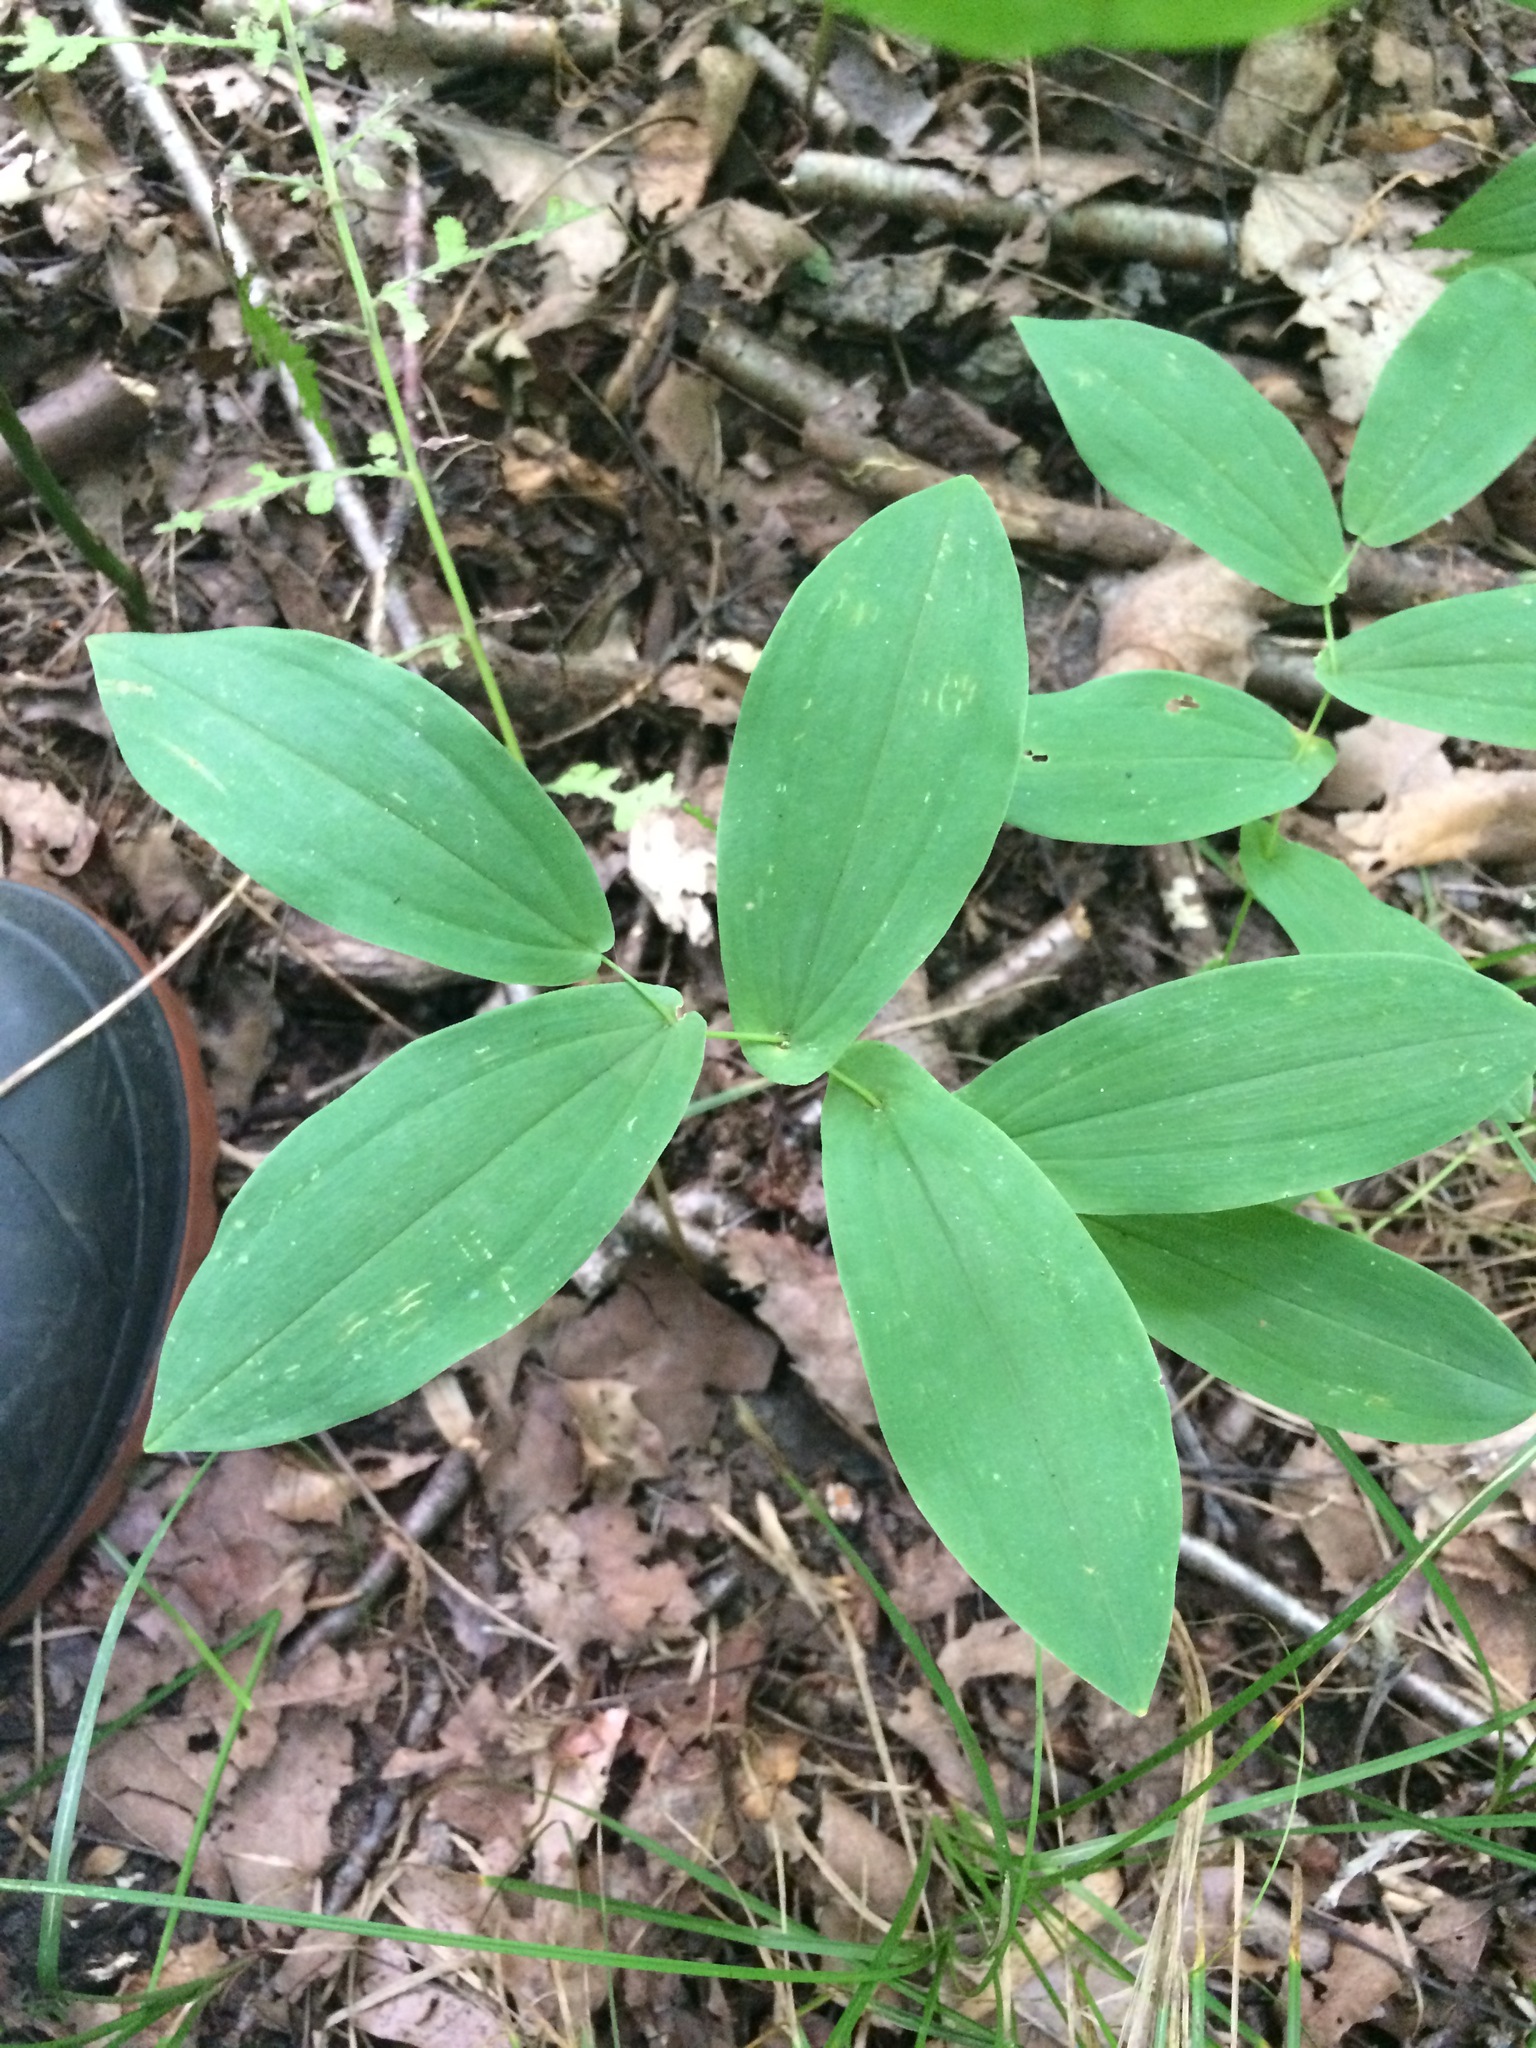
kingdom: Plantae
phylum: Tracheophyta
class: Liliopsida
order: Liliales
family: Colchicaceae
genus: Uvularia
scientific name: Uvularia grandiflora
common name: Bellwort
